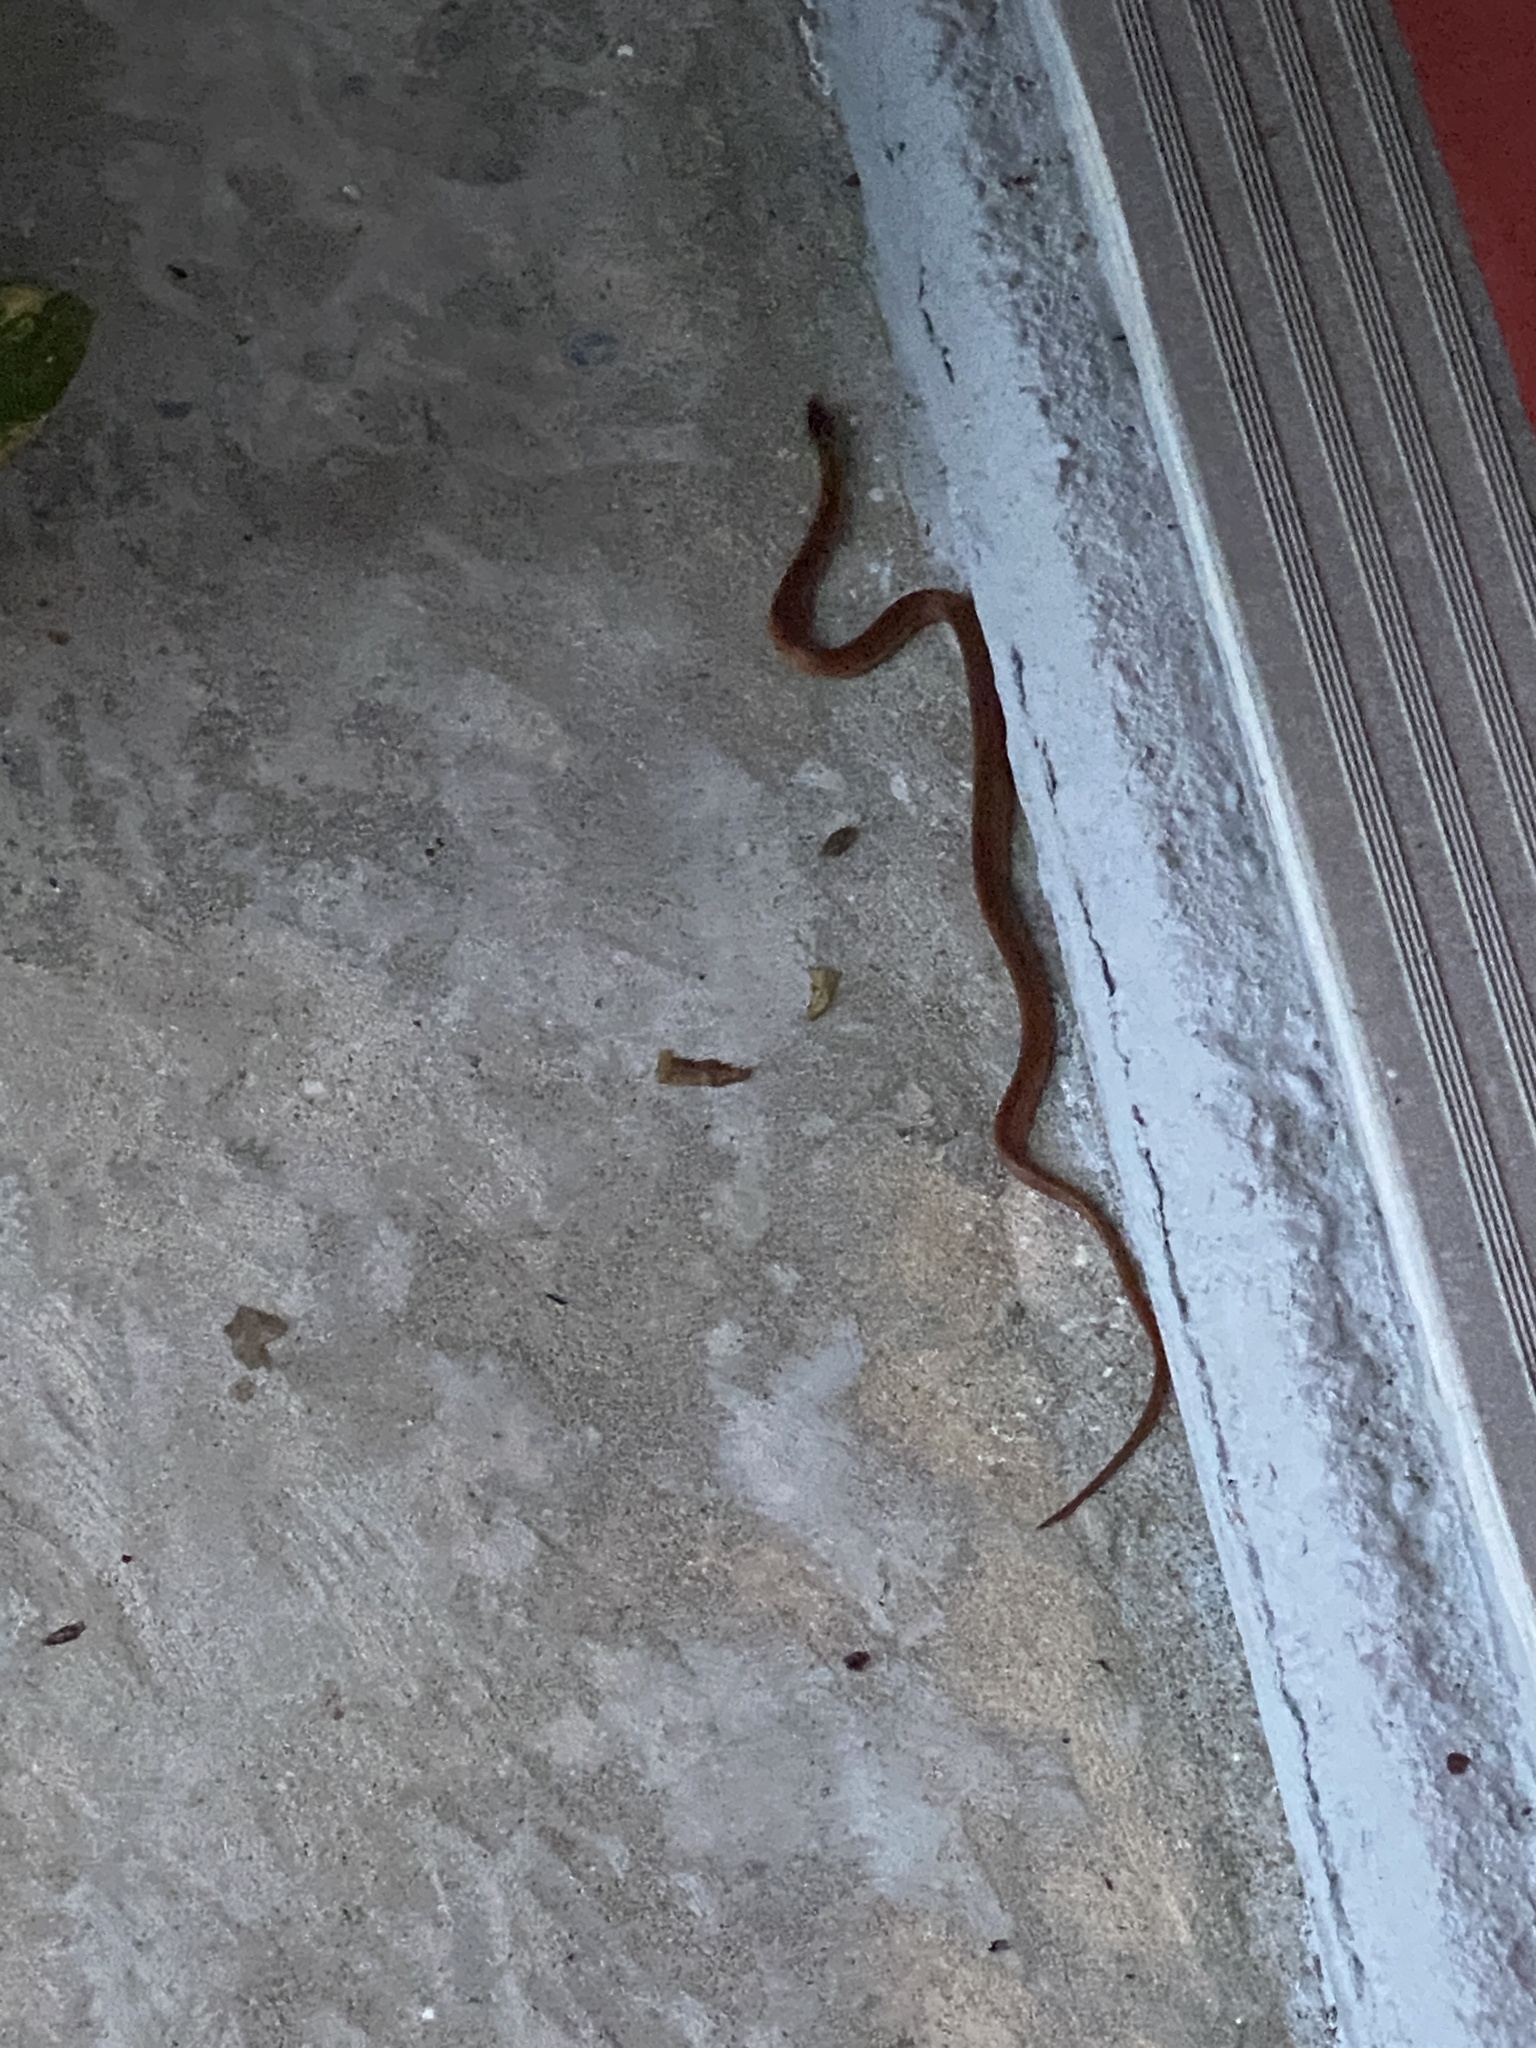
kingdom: Animalia
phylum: Chordata
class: Squamata
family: Colubridae
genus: Rhadinaea
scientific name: Rhadinaea flavilata
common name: Pine woods littersnake
